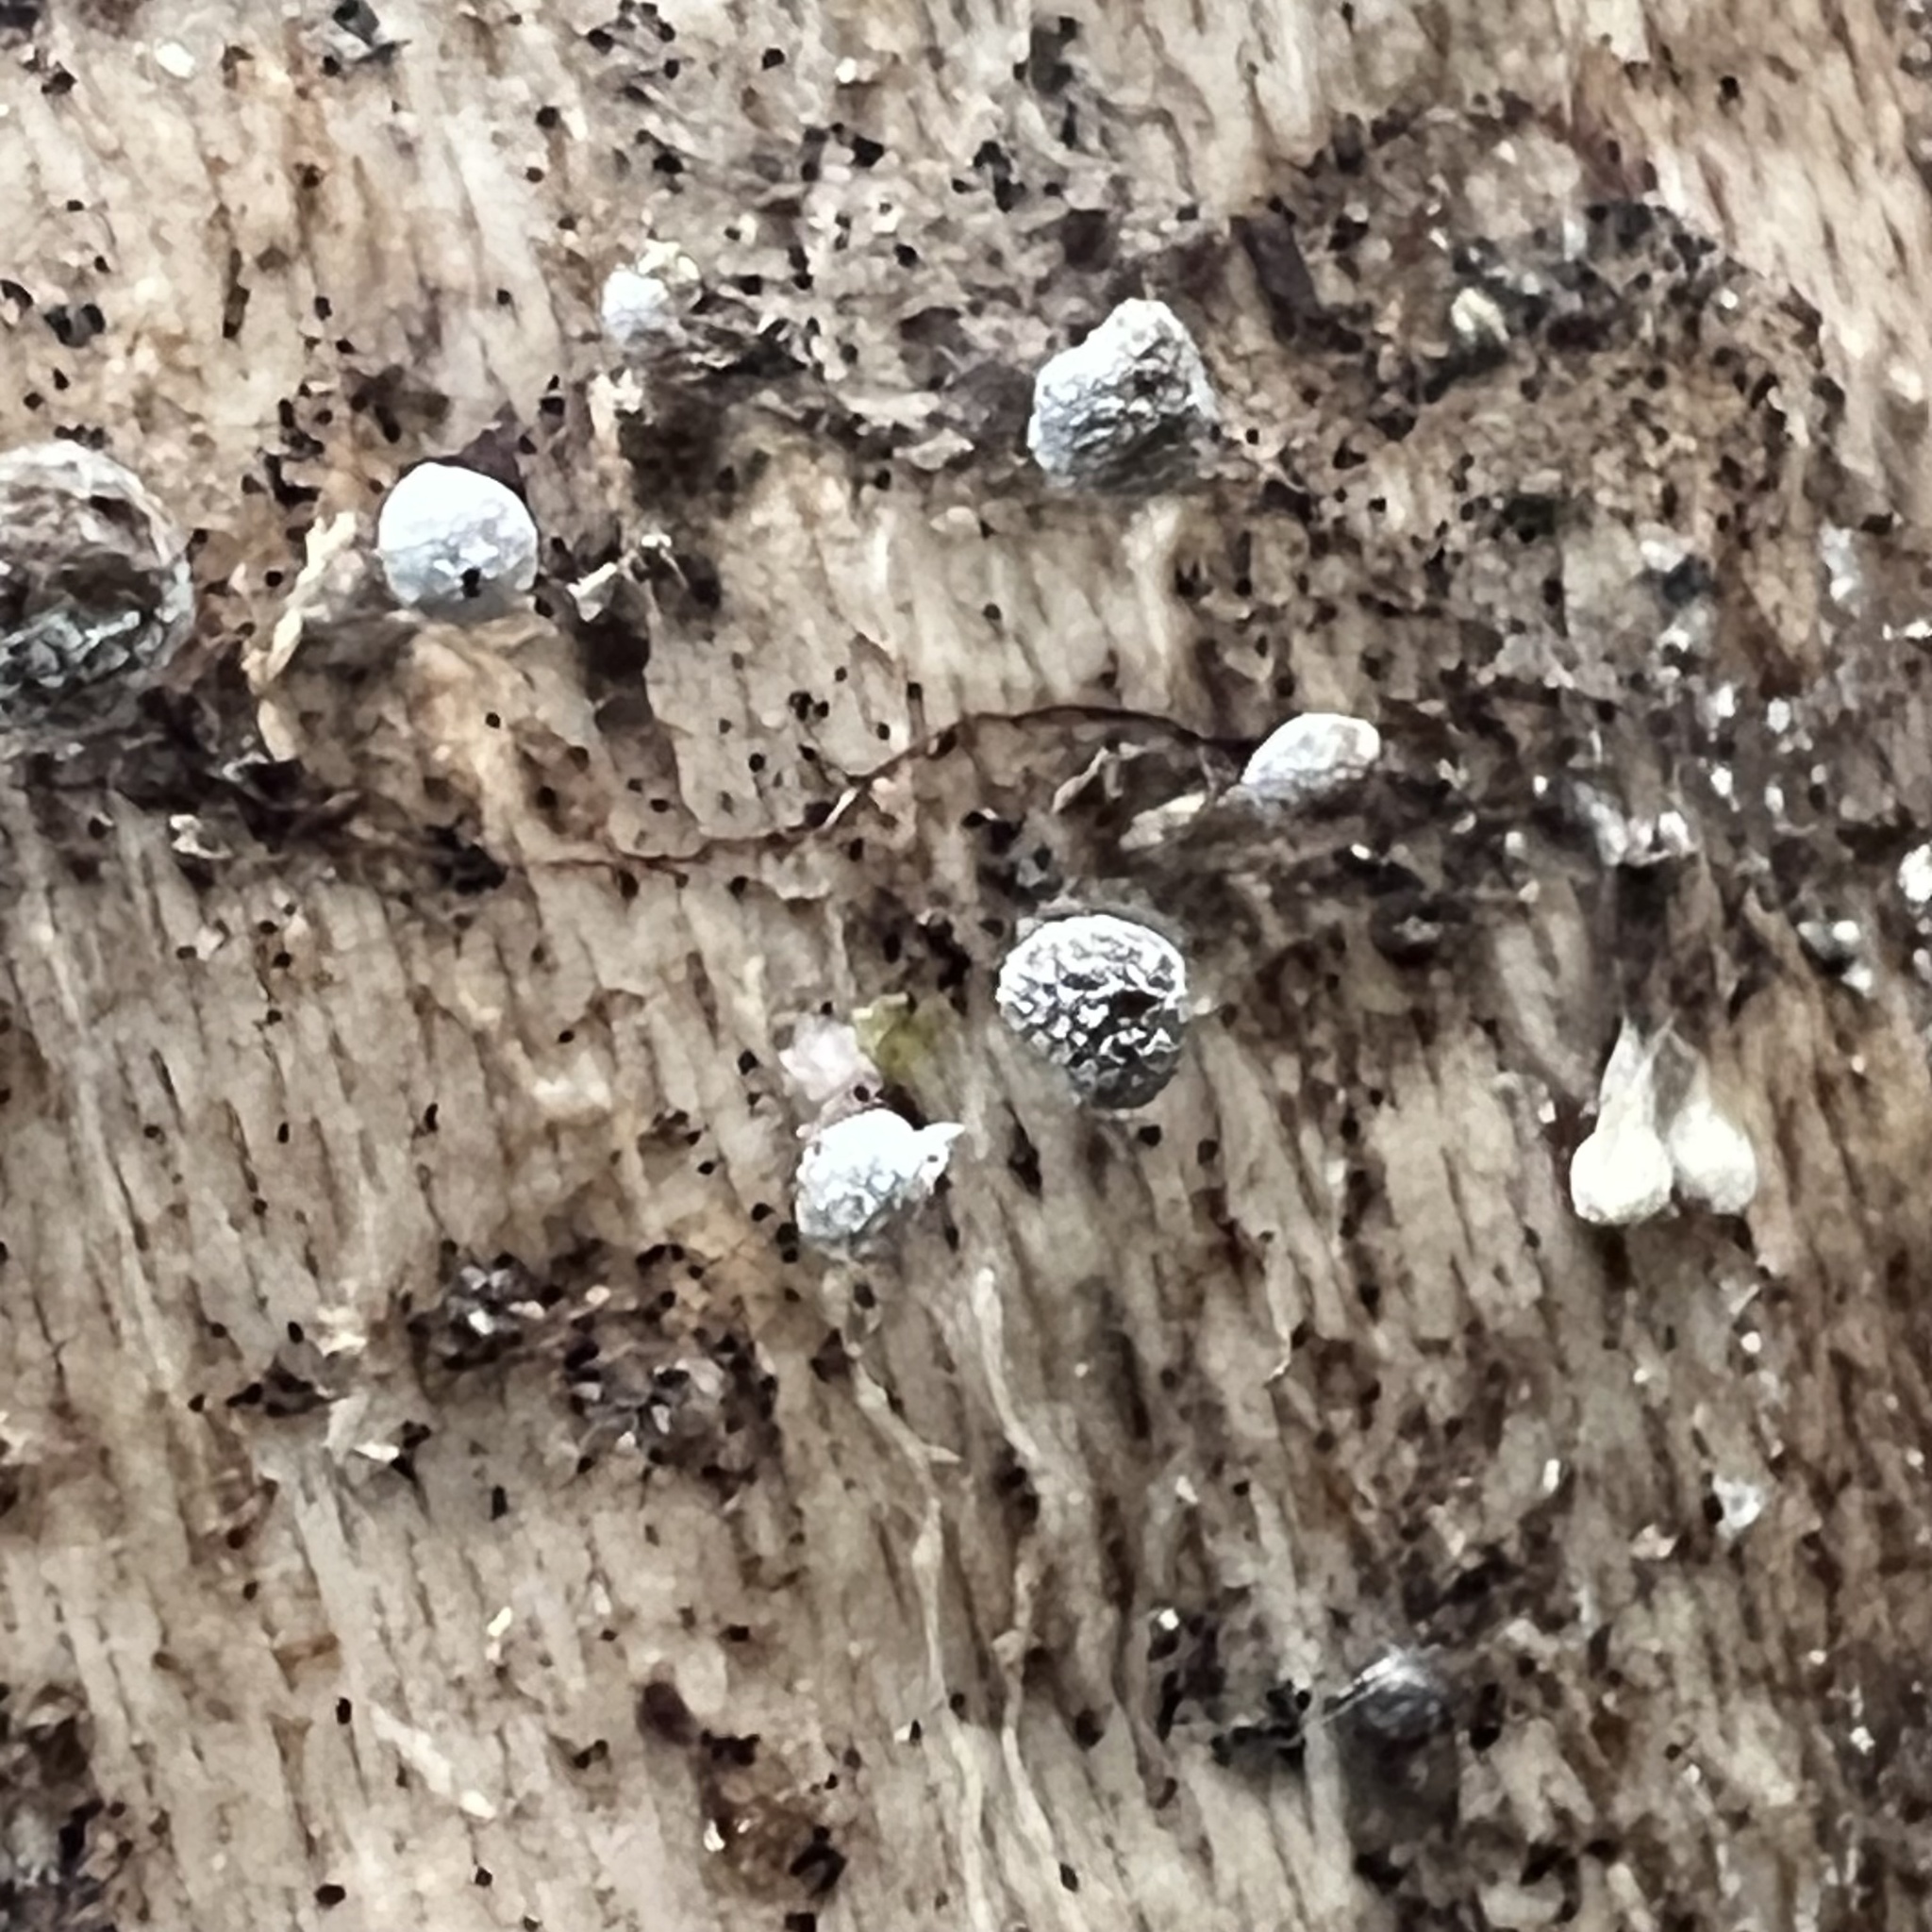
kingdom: Fungi
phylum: Basidiomycota
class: Atractiellomycetes
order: Atractiellales
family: Phleogenaceae
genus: Phleogena
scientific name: Phleogena faginea
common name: Fenugreek stalkball
